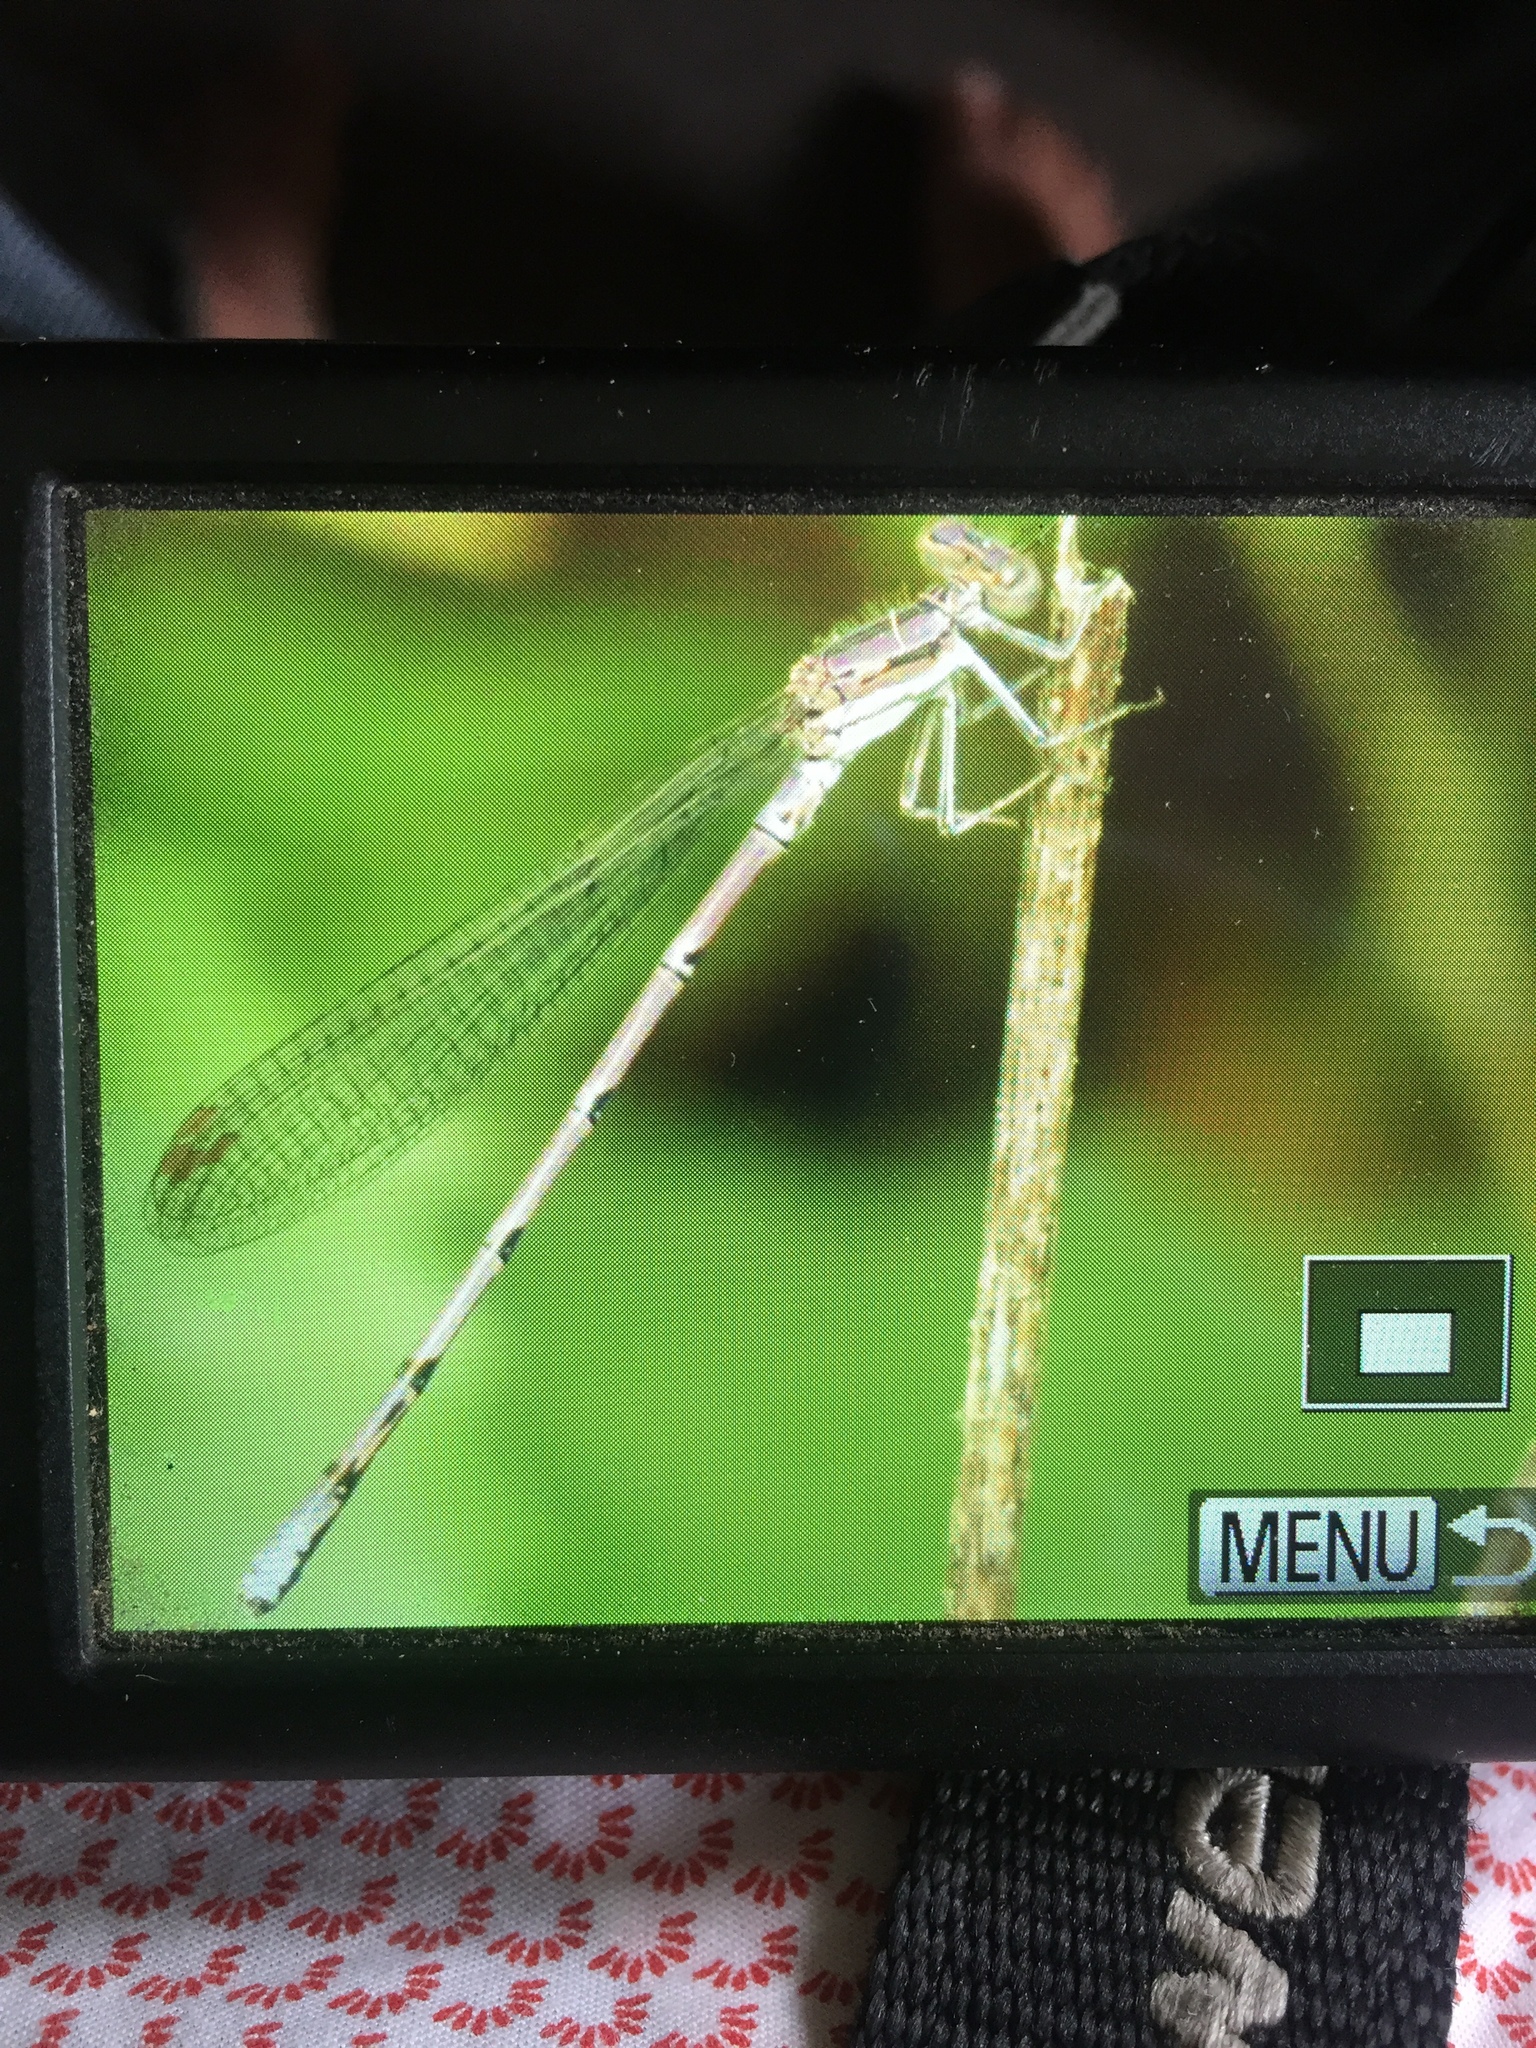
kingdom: Animalia
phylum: Arthropoda
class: Insecta
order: Odonata
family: Coenagrionidae
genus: Argia
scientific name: Argia fumipennis
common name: Variable dancer
